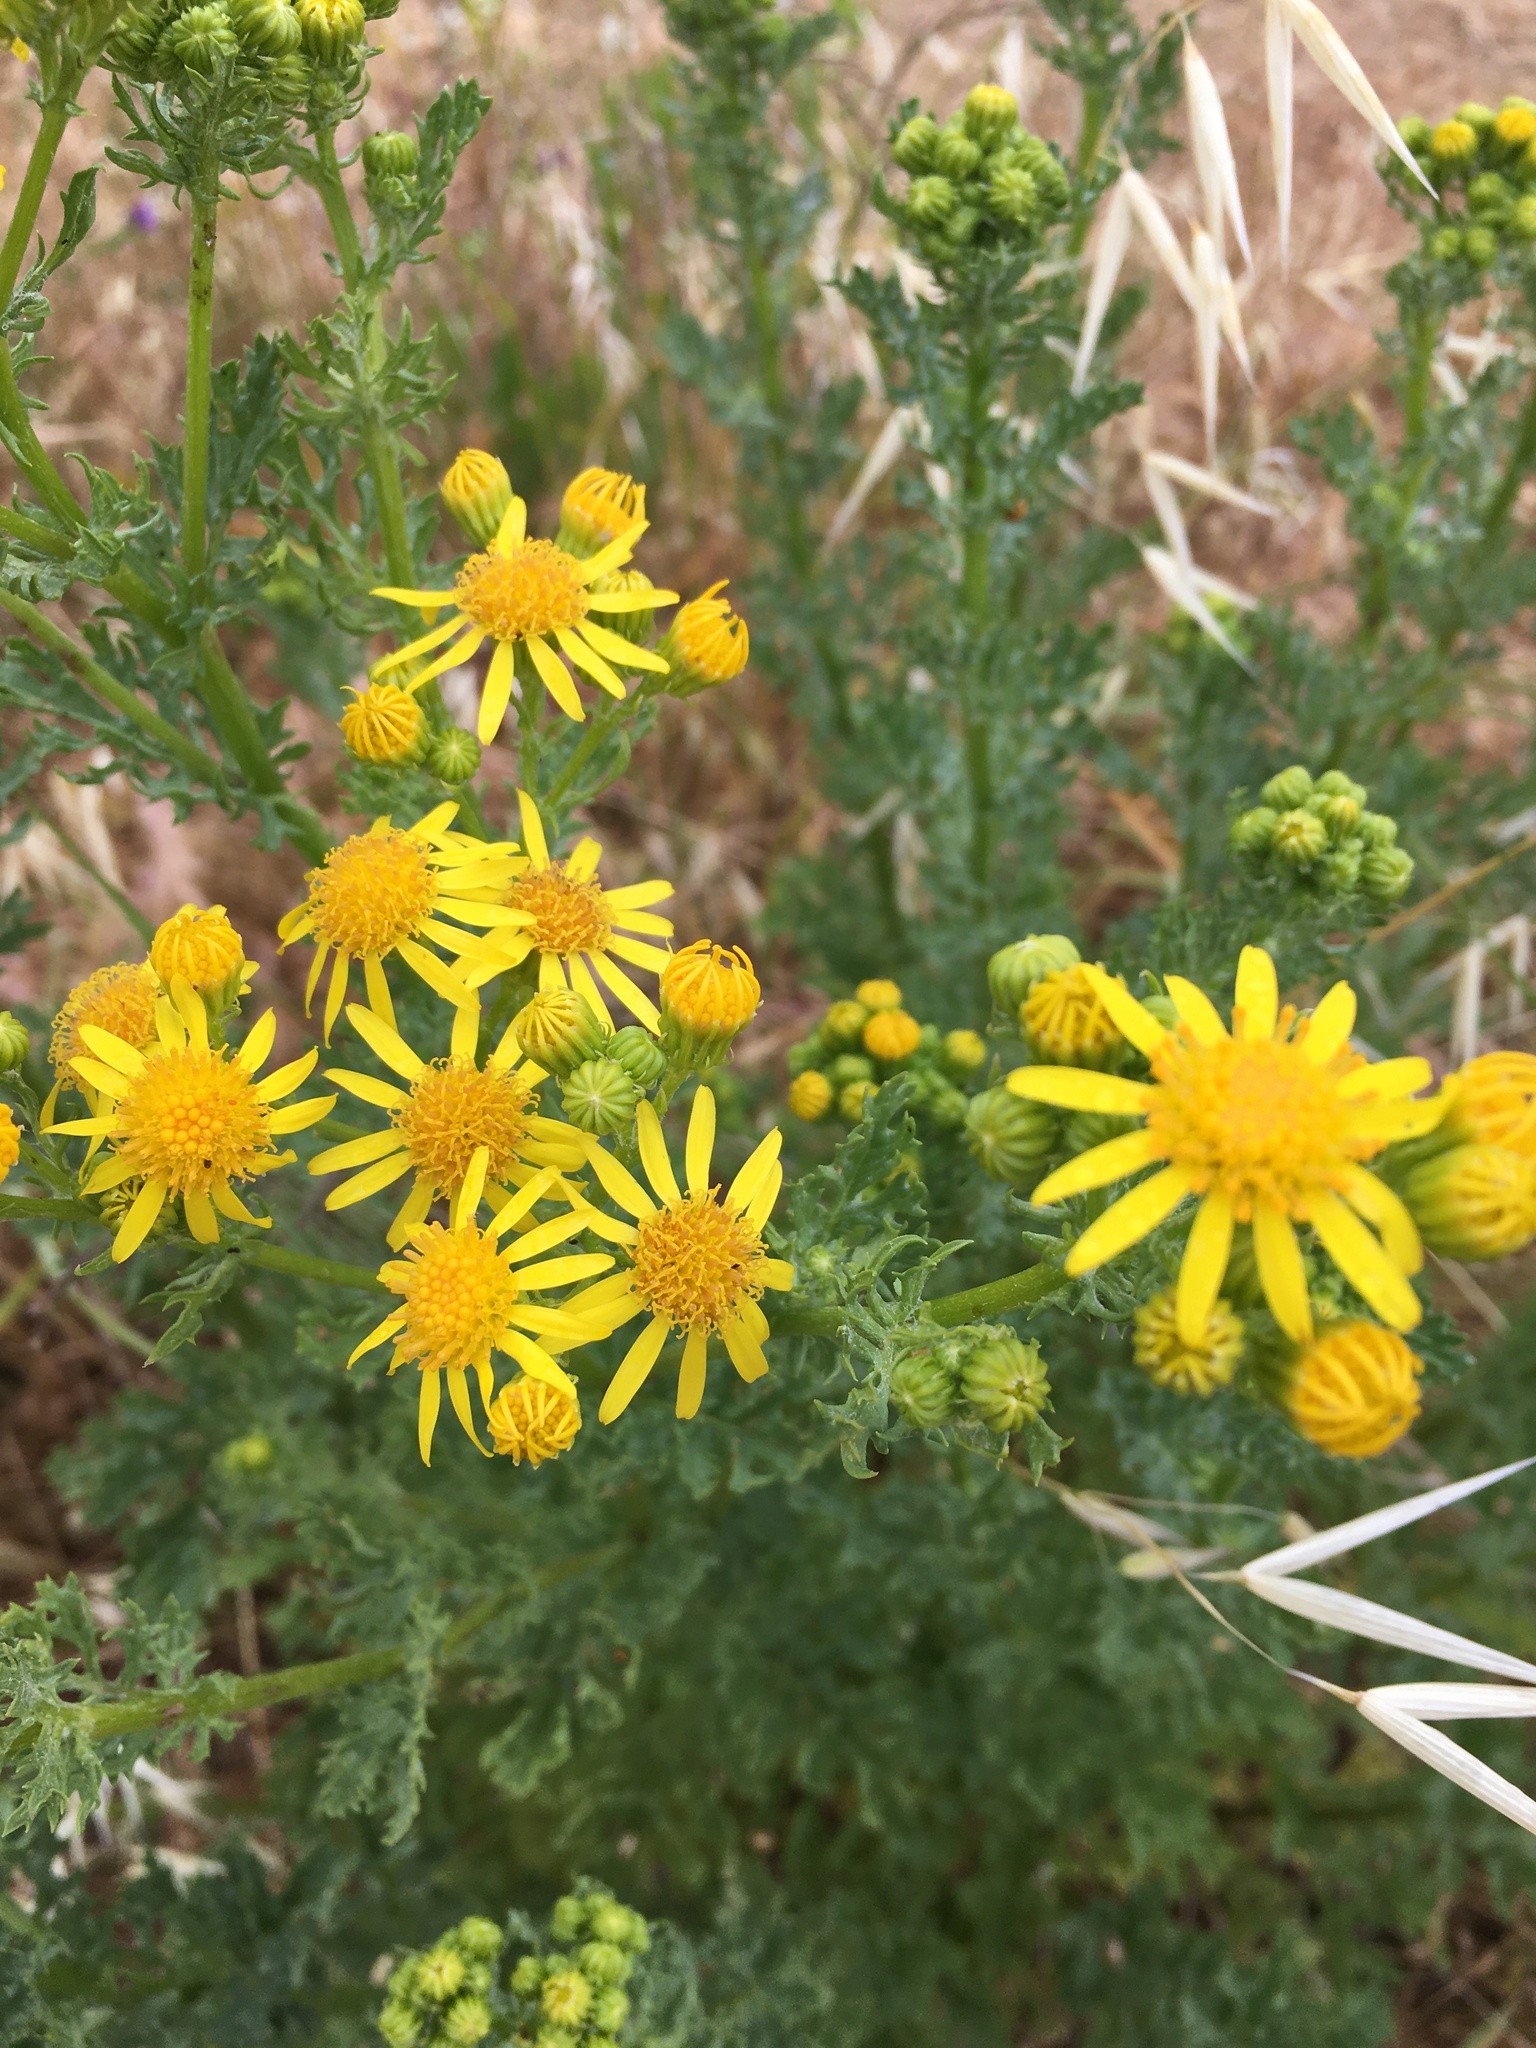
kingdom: Plantae
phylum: Tracheophyta
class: Magnoliopsida
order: Asterales
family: Asteraceae
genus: Jacobaea
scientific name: Jacobaea vulgaris
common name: Stinking willie
